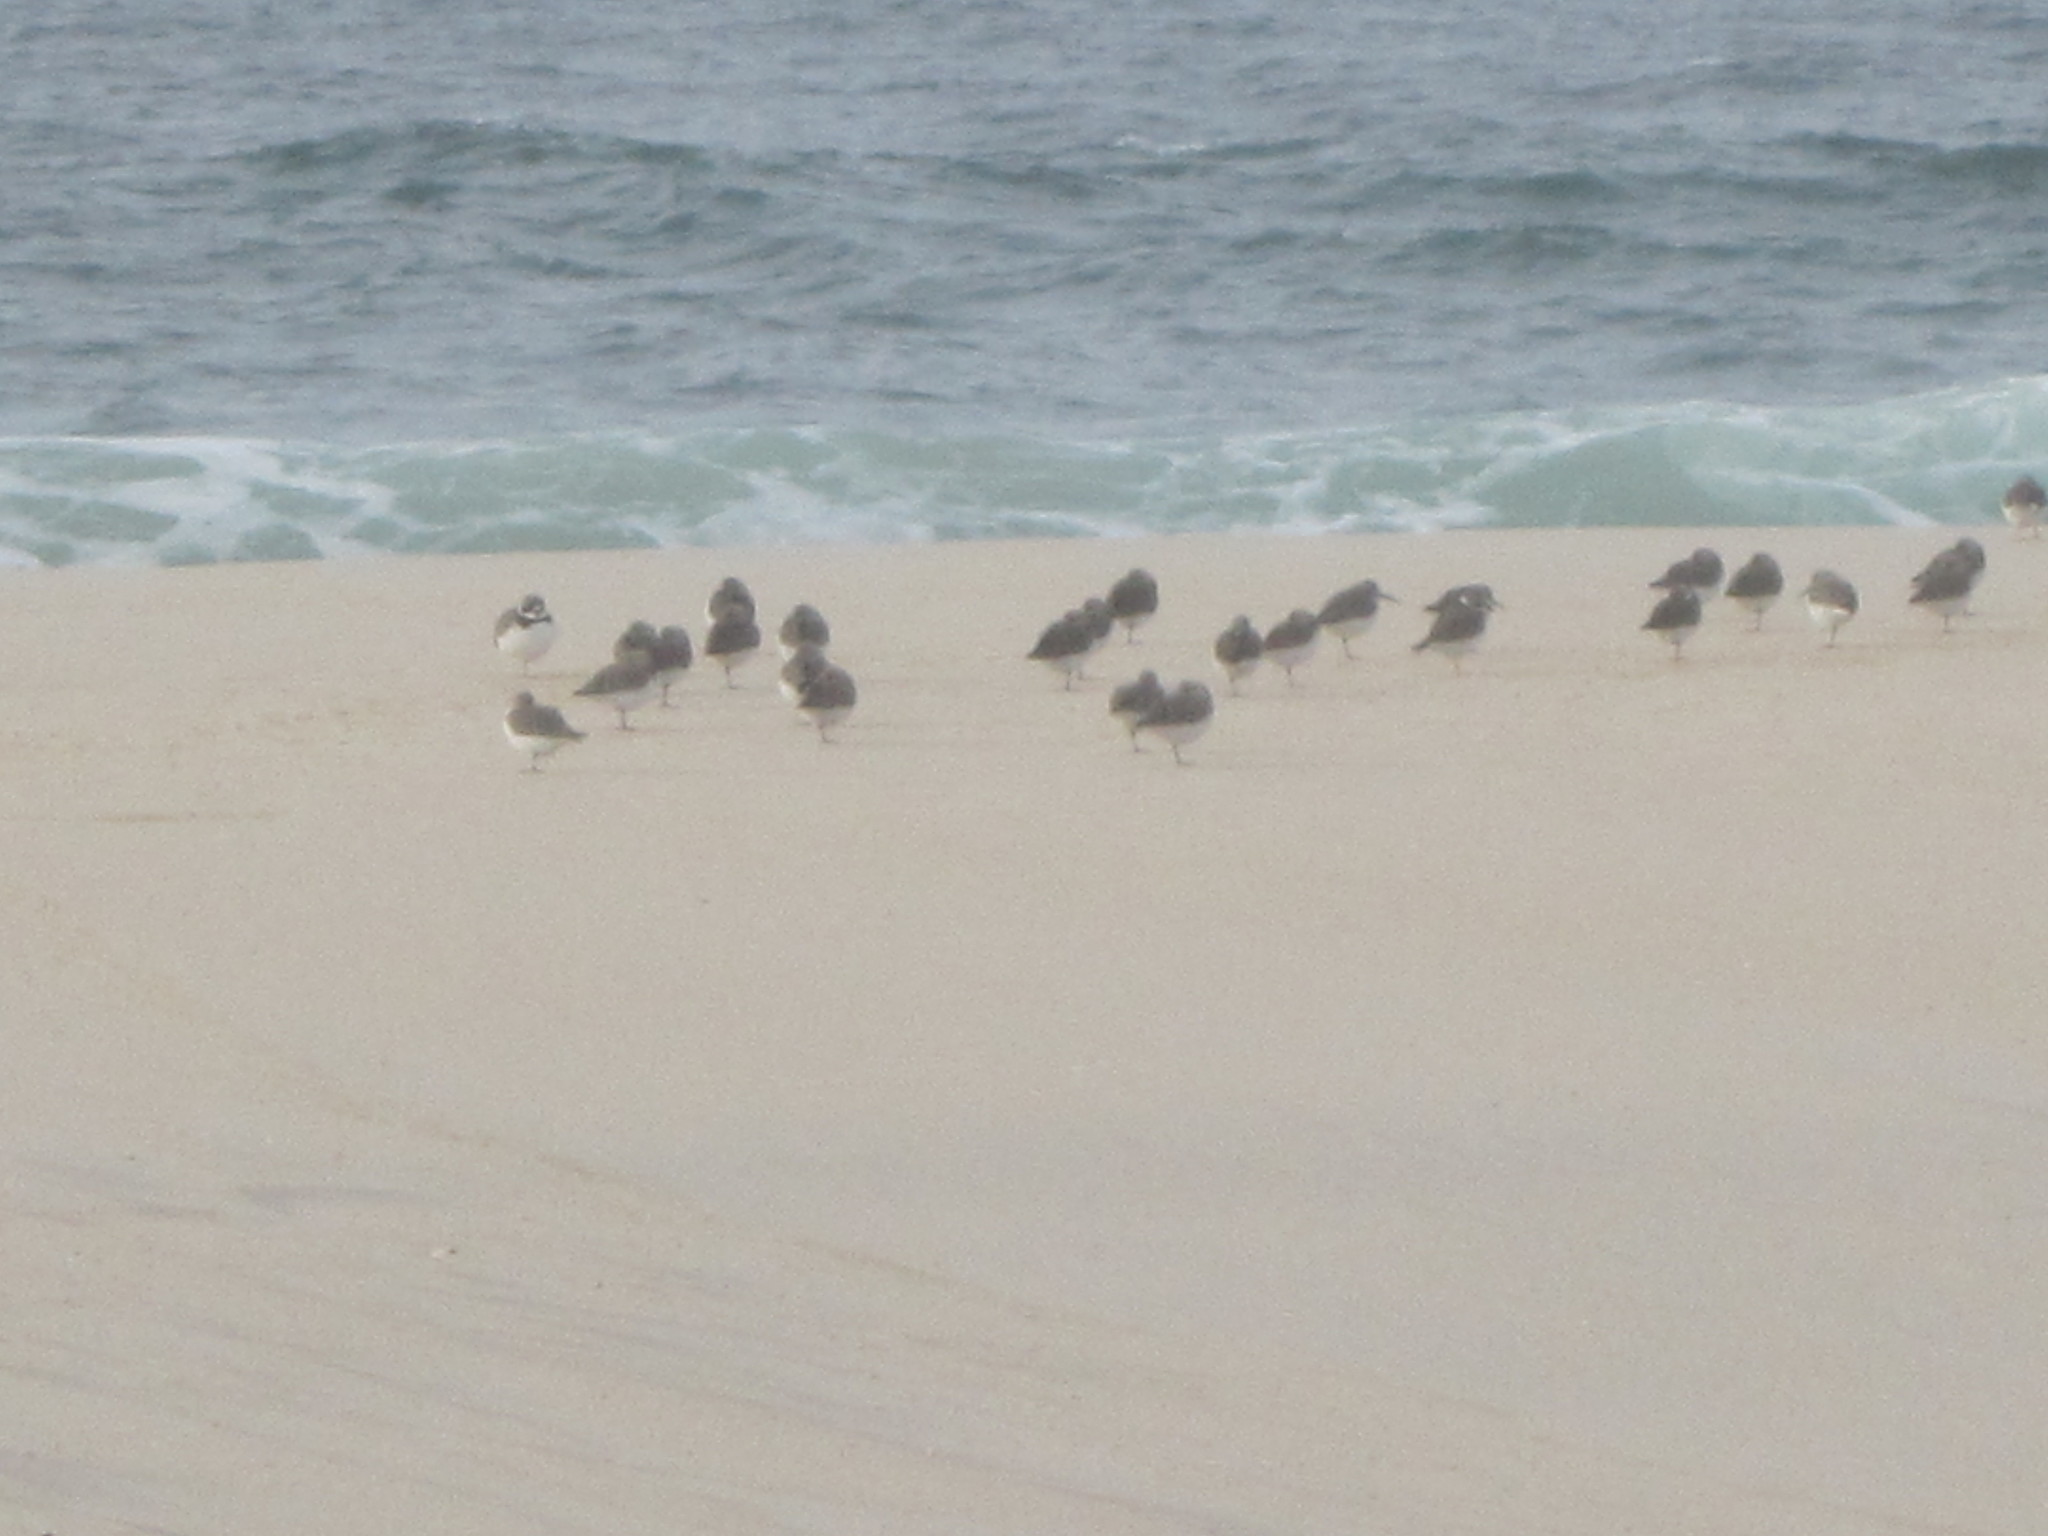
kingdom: Animalia
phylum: Chordata
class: Aves
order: Charadriiformes
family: Scolopacidae
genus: Calidris
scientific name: Calidris alpina
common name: Dunlin
